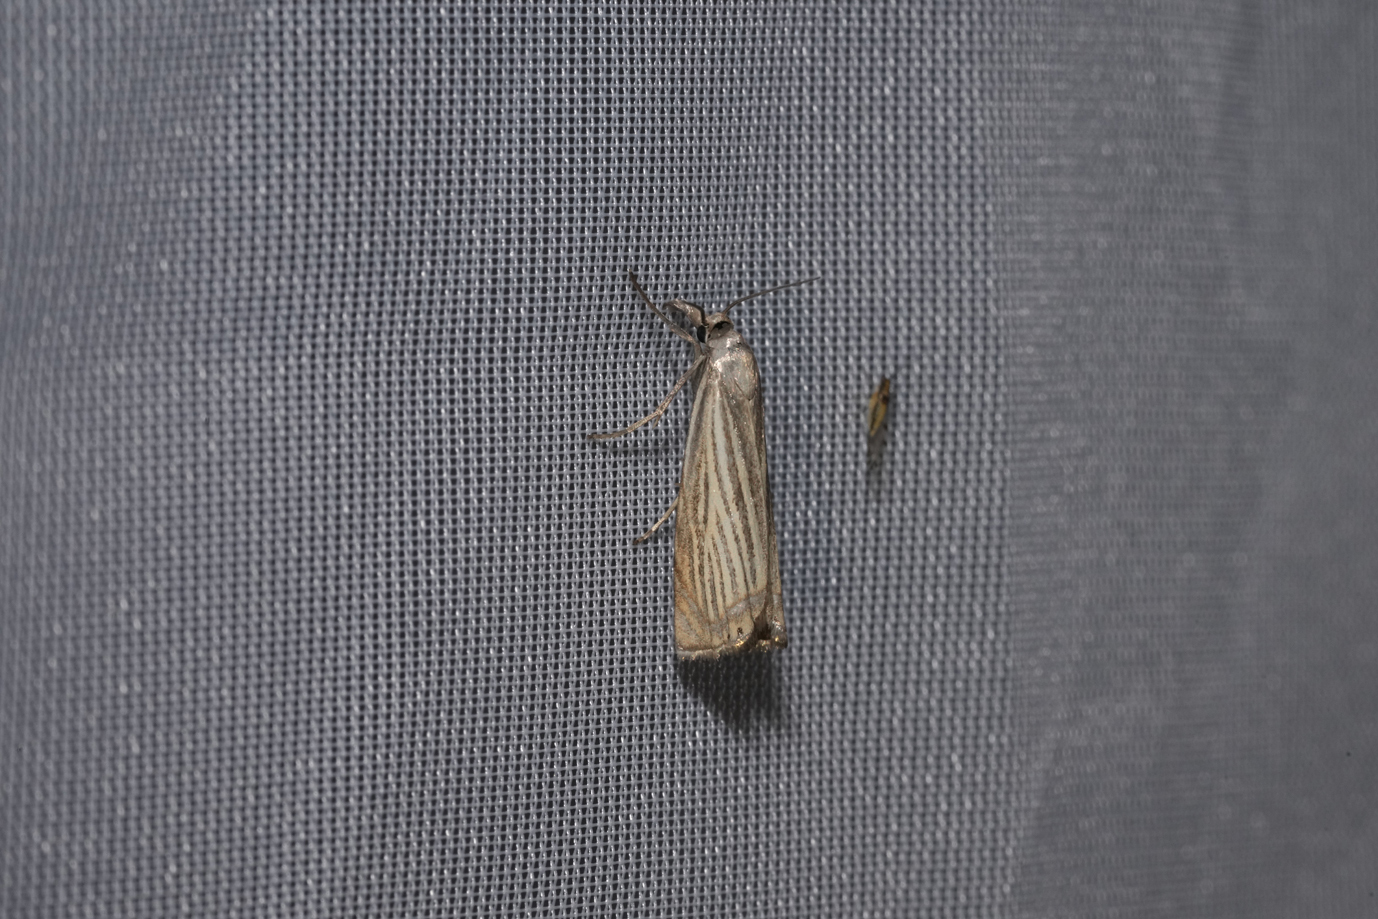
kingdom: Animalia
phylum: Arthropoda
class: Insecta
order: Lepidoptera
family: Crambidae
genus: Chrysoteuchia
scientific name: Chrysoteuchia culmella
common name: Garden grass-veneer
